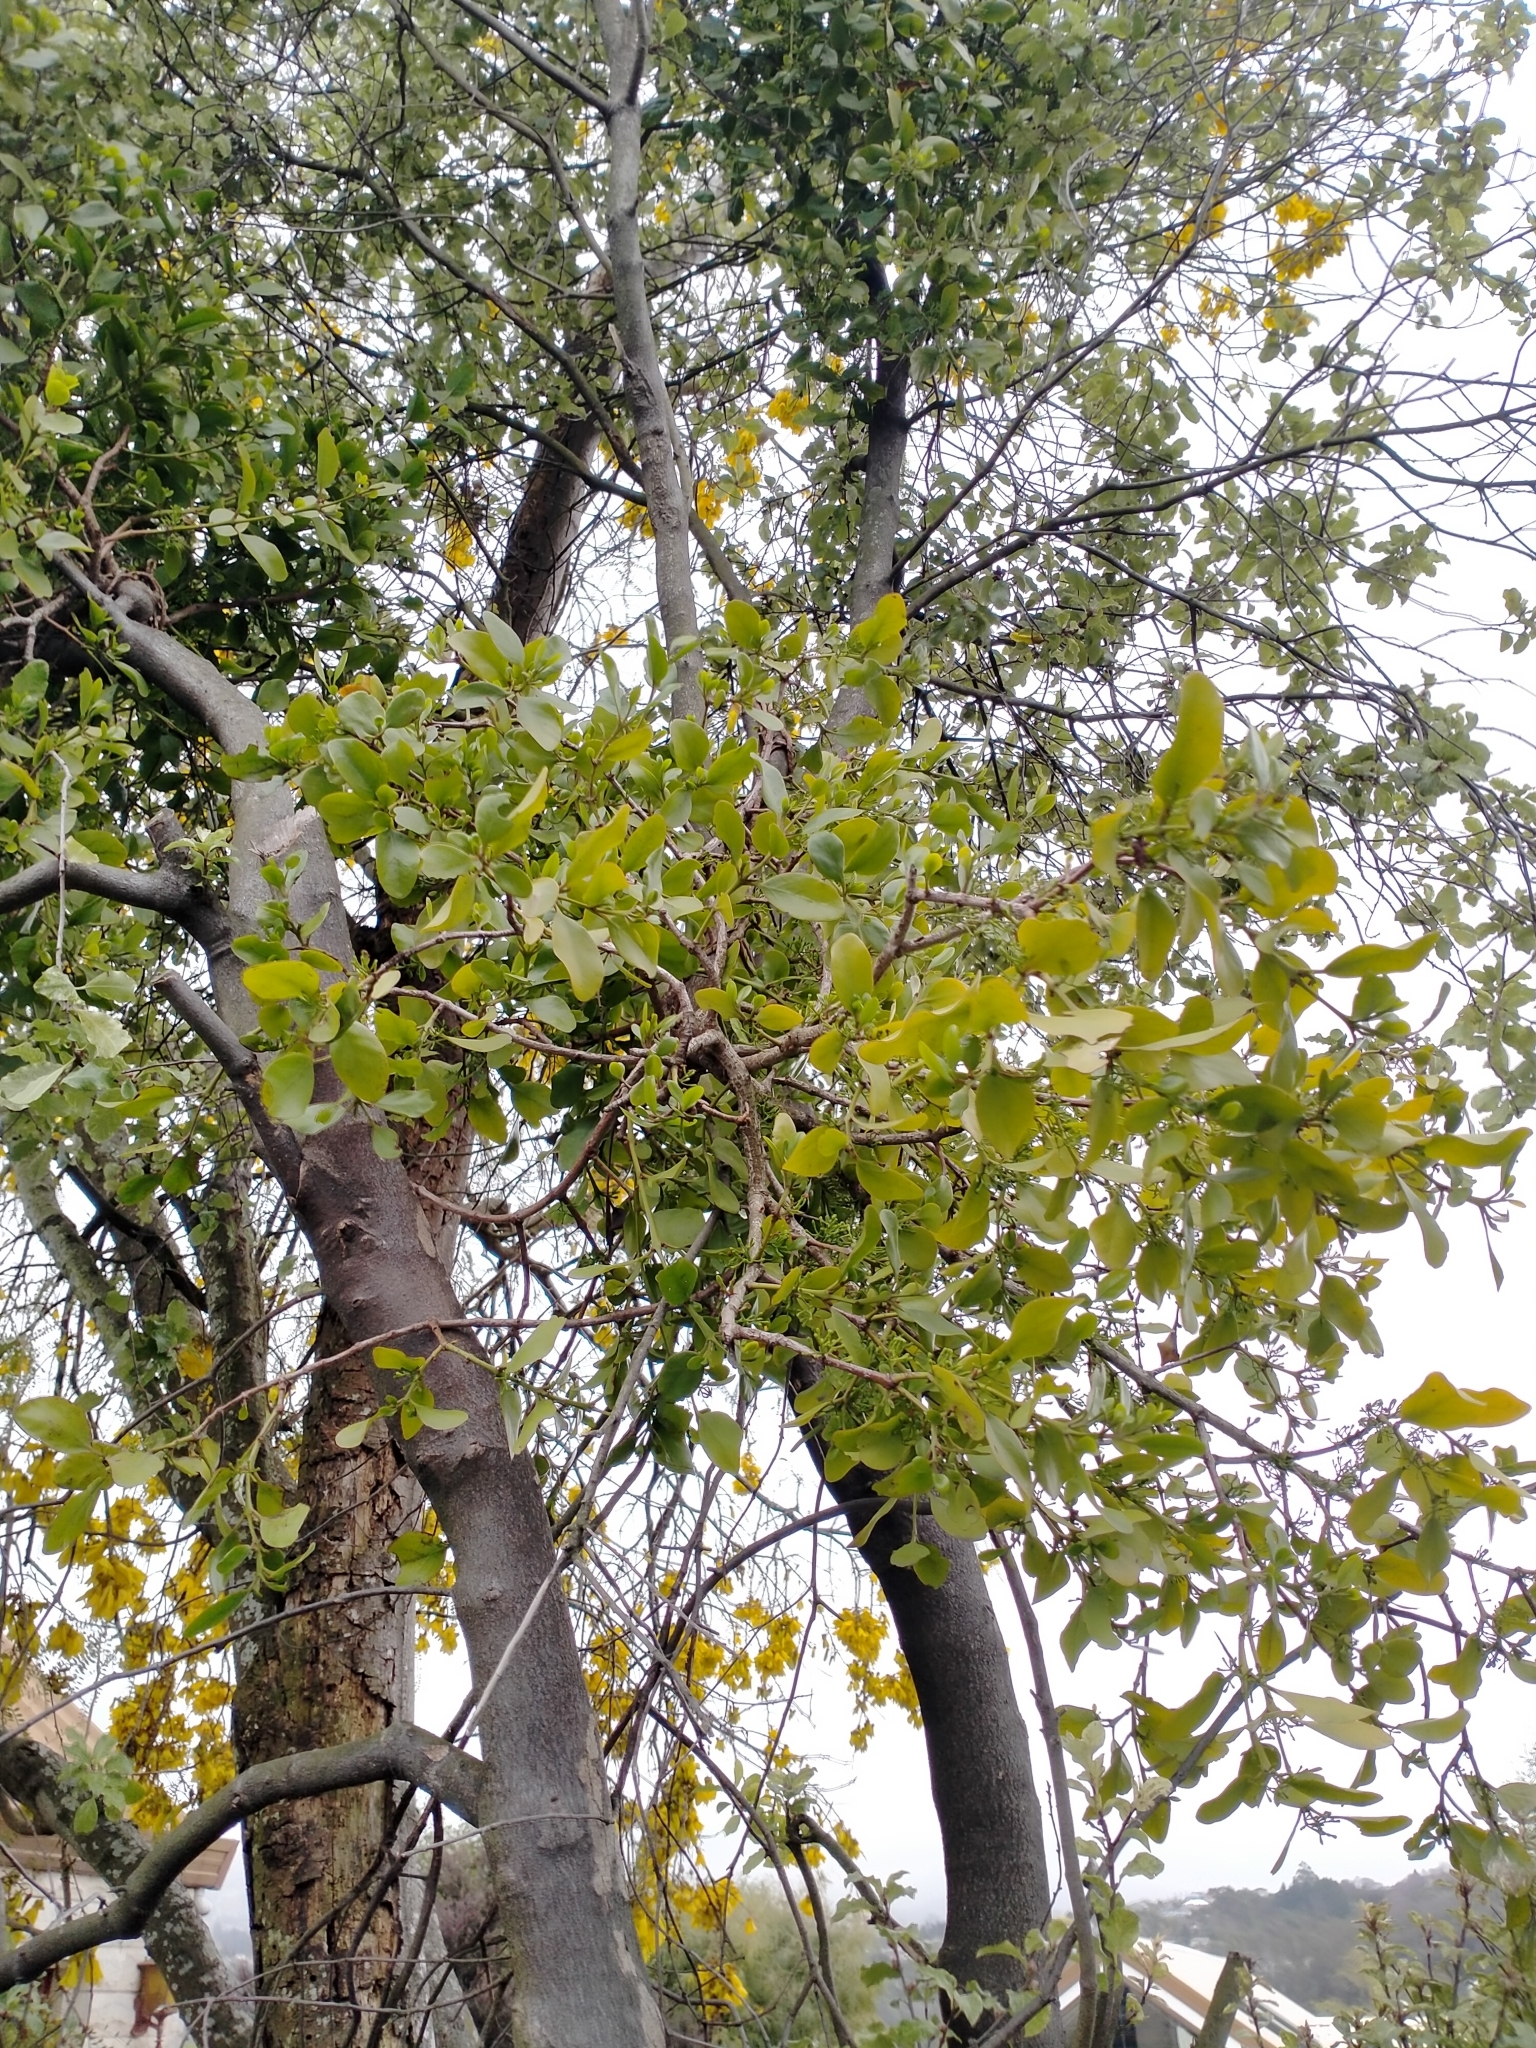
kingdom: Plantae
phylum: Tracheophyta
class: Magnoliopsida
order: Santalales
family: Loranthaceae
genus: Ileostylus
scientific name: Ileostylus micranthus
